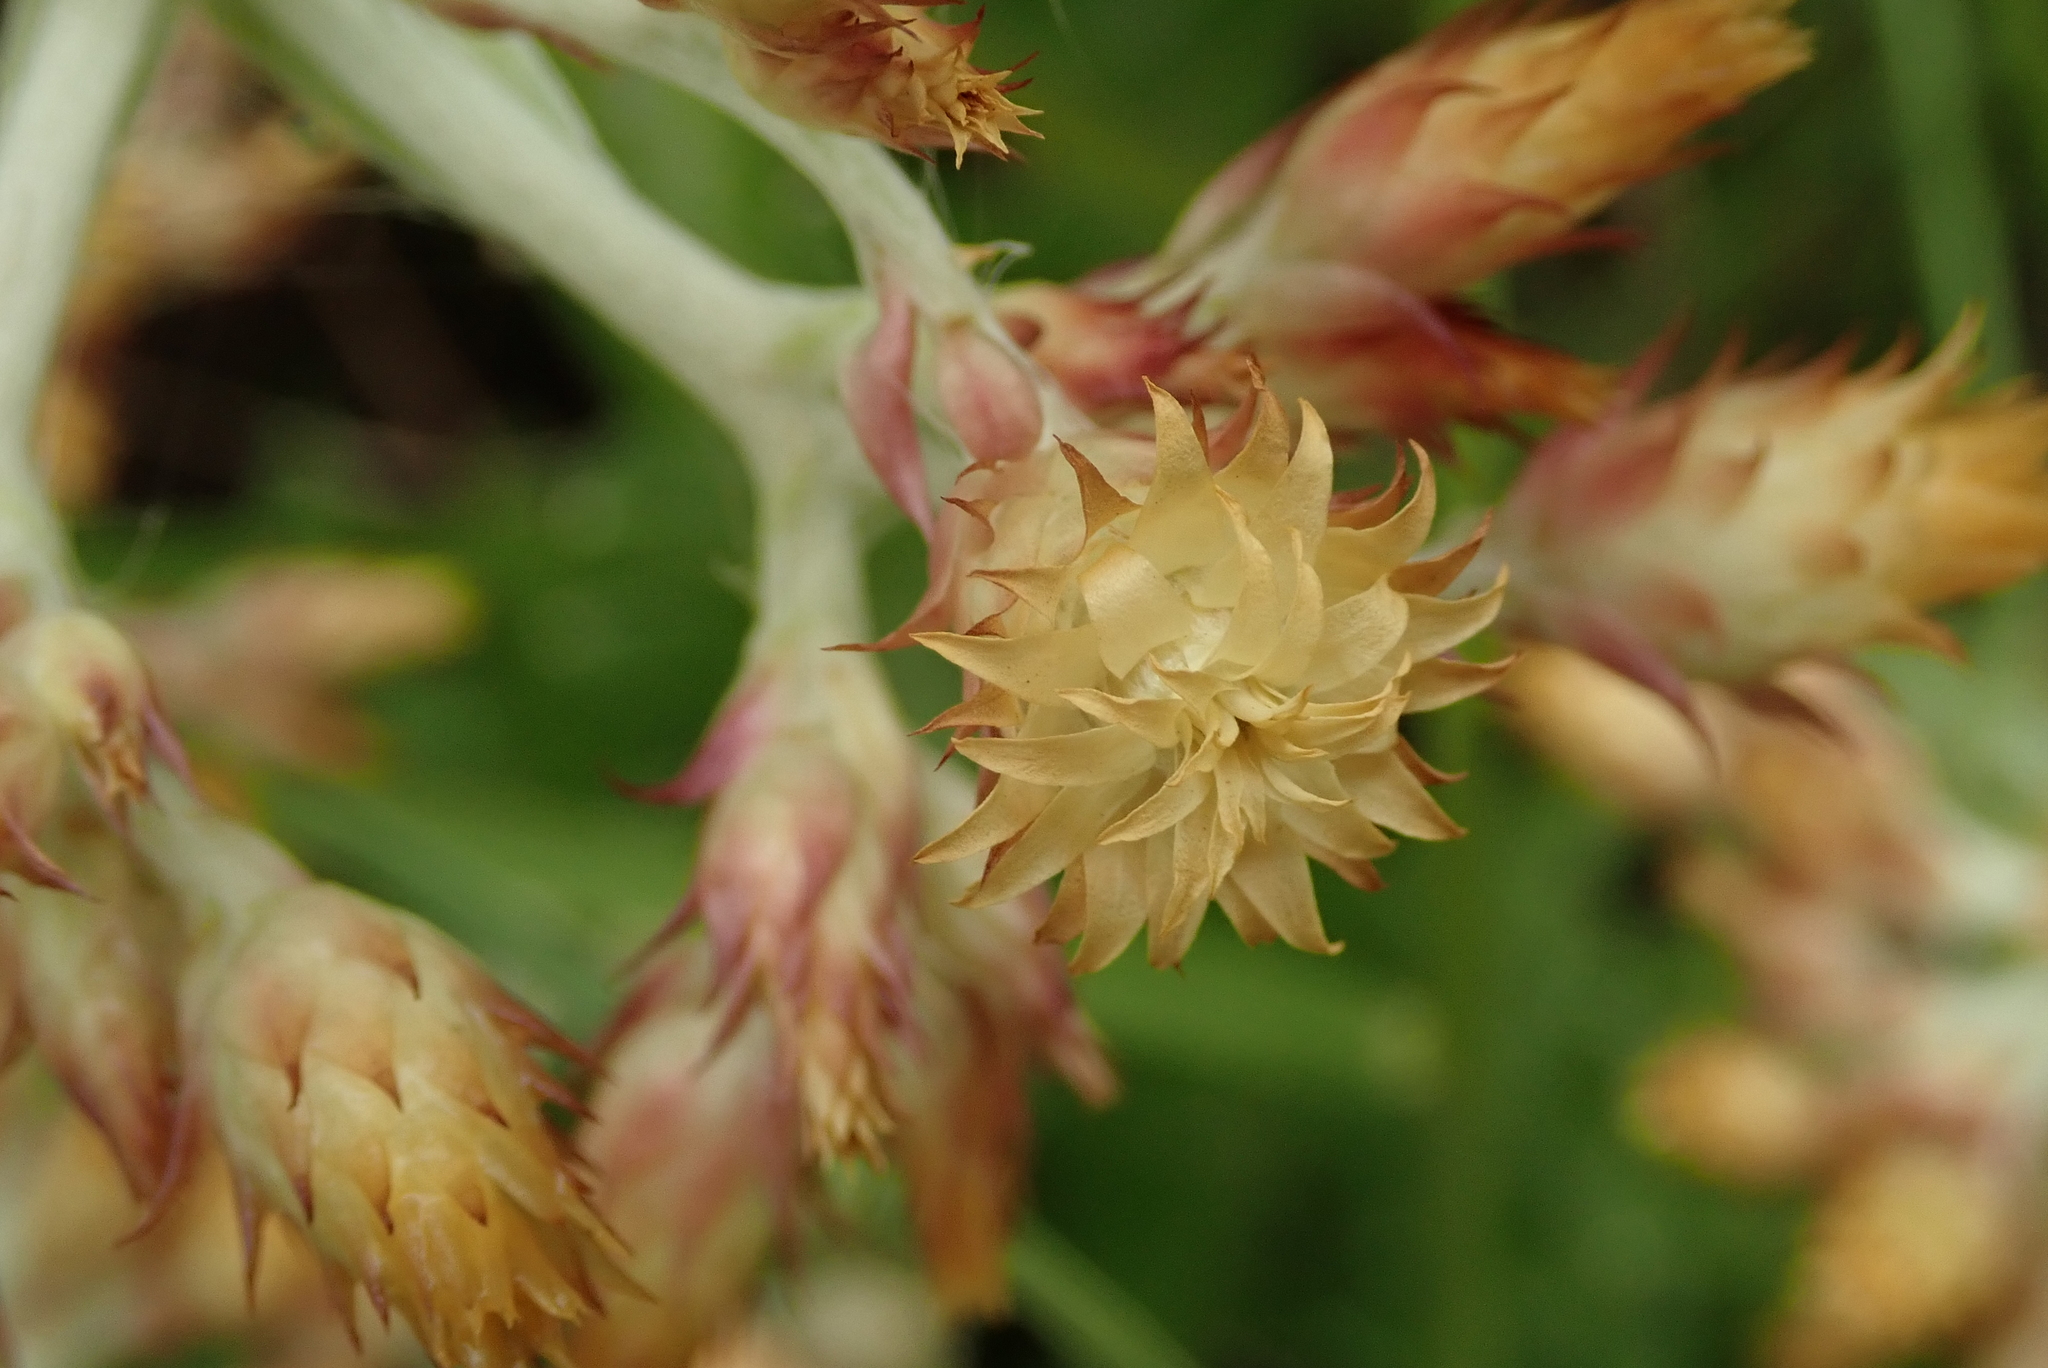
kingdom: Plantae
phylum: Tracheophyta
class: Magnoliopsida
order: Asterales
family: Asteraceae
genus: Helichrysum
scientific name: Helichrysum appendiculatum
